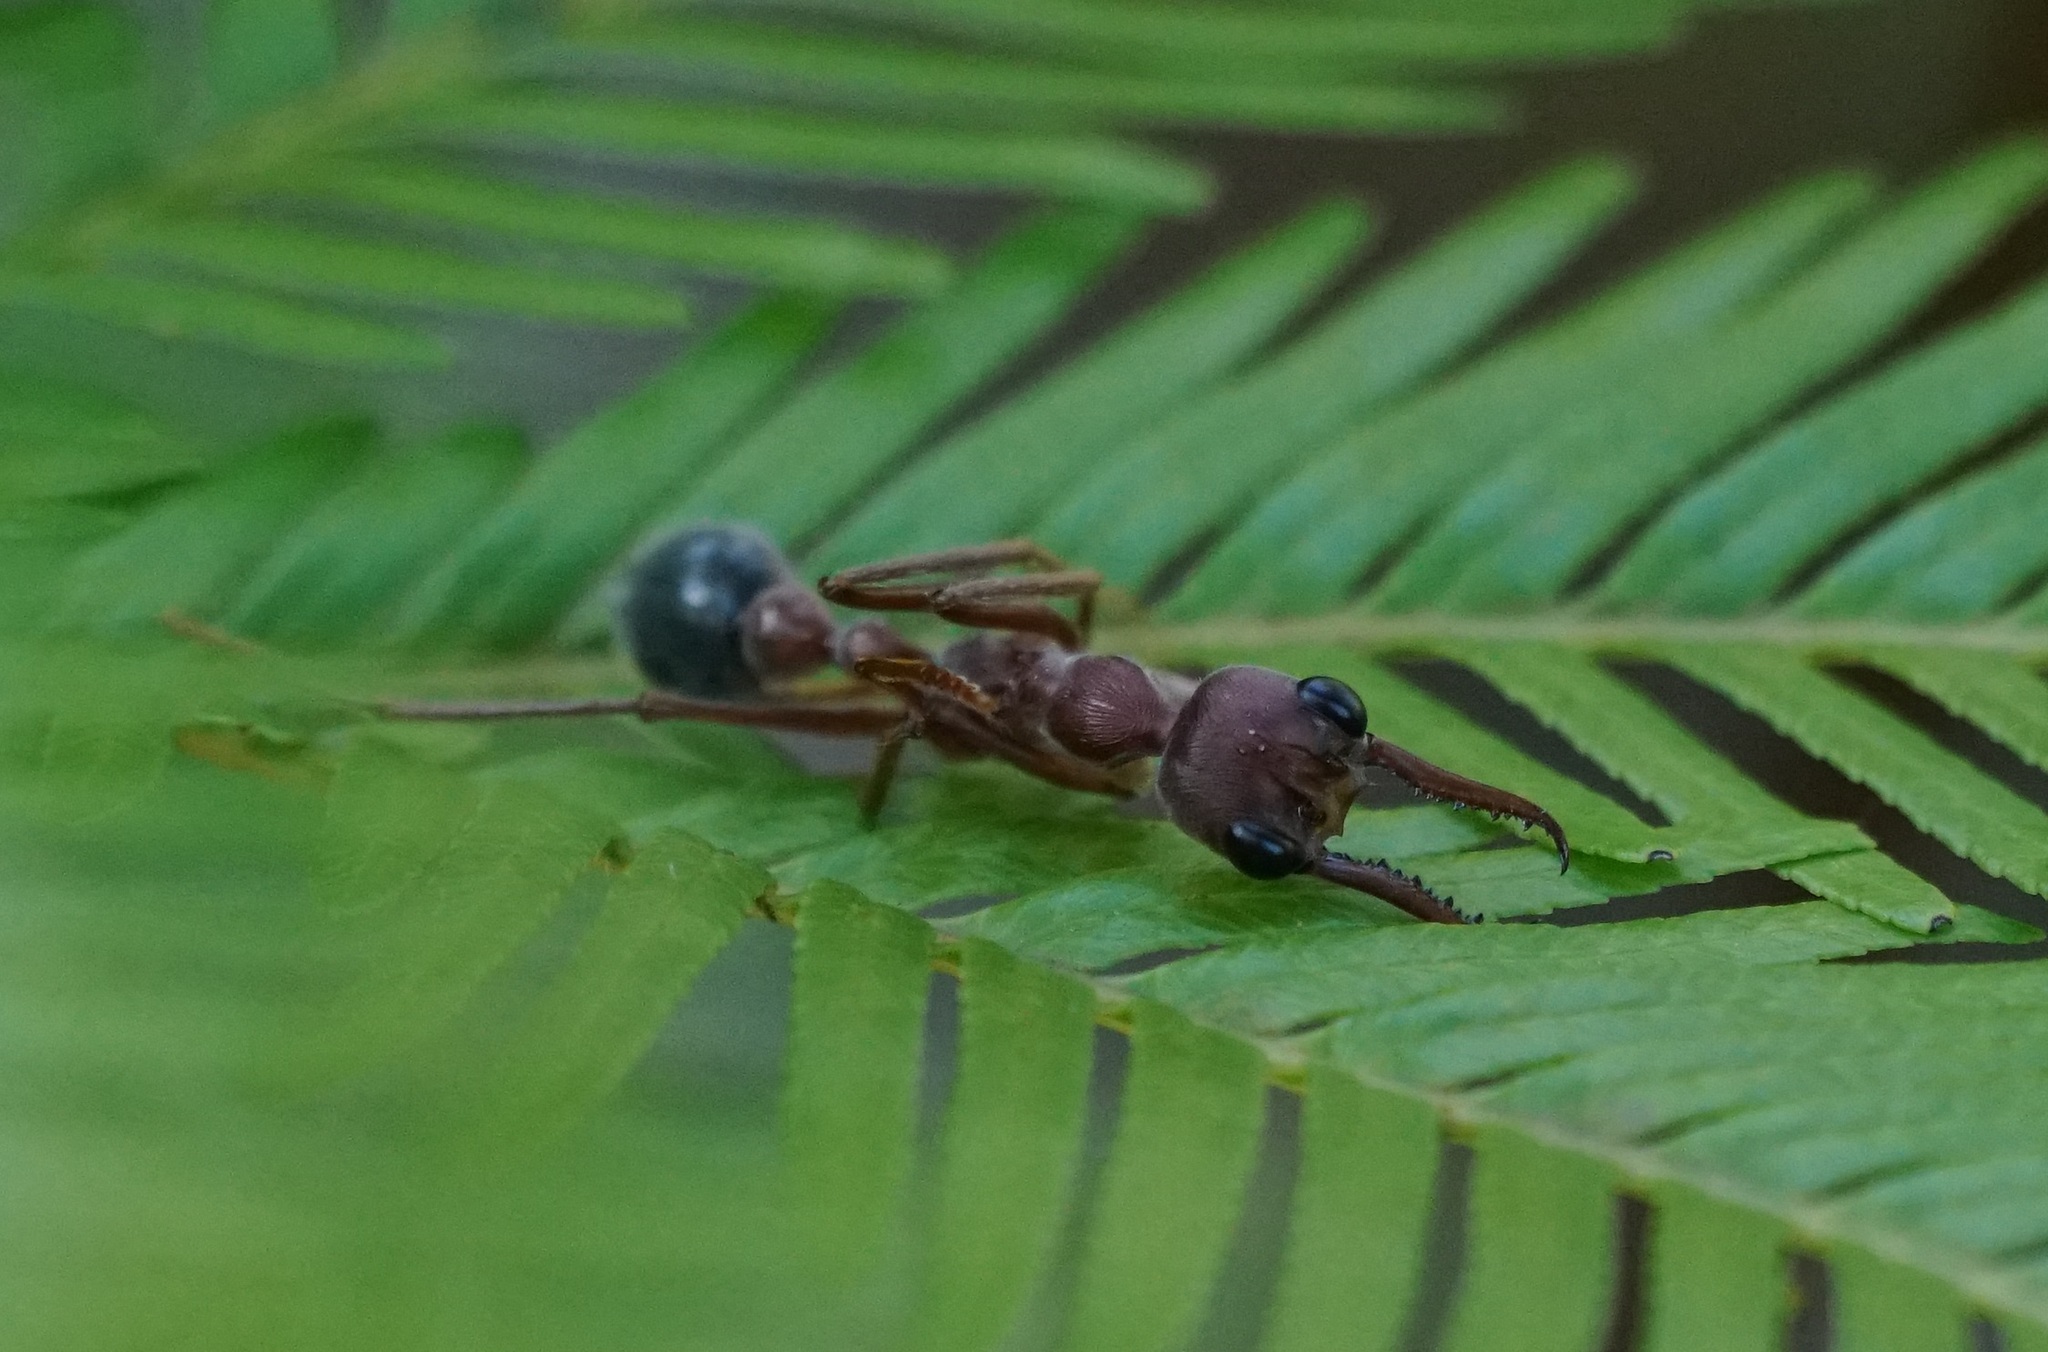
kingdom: Animalia
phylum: Arthropoda
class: Insecta
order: Hymenoptera
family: Formicidae
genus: Myrmecia
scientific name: Myrmecia brevinoda
